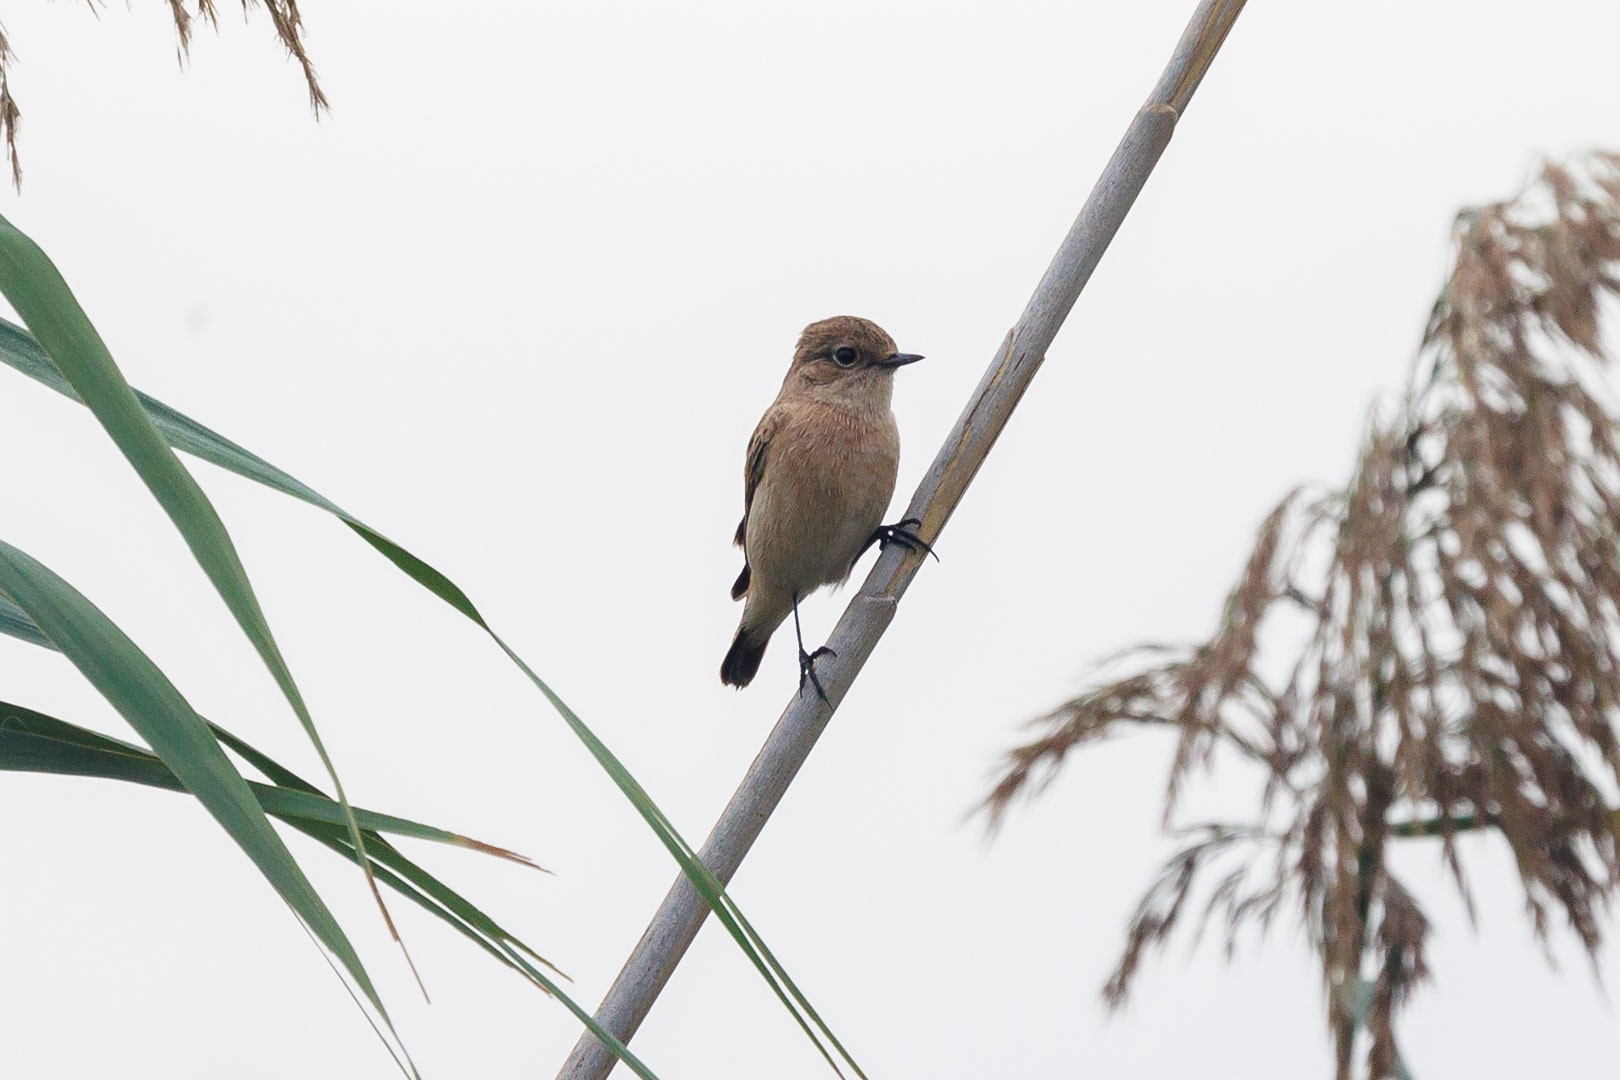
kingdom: Animalia
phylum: Chordata
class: Aves
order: Passeriformes
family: Muscicapidae
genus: Saxicola
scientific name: Saxicola maurus
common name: Siberian stonechat
